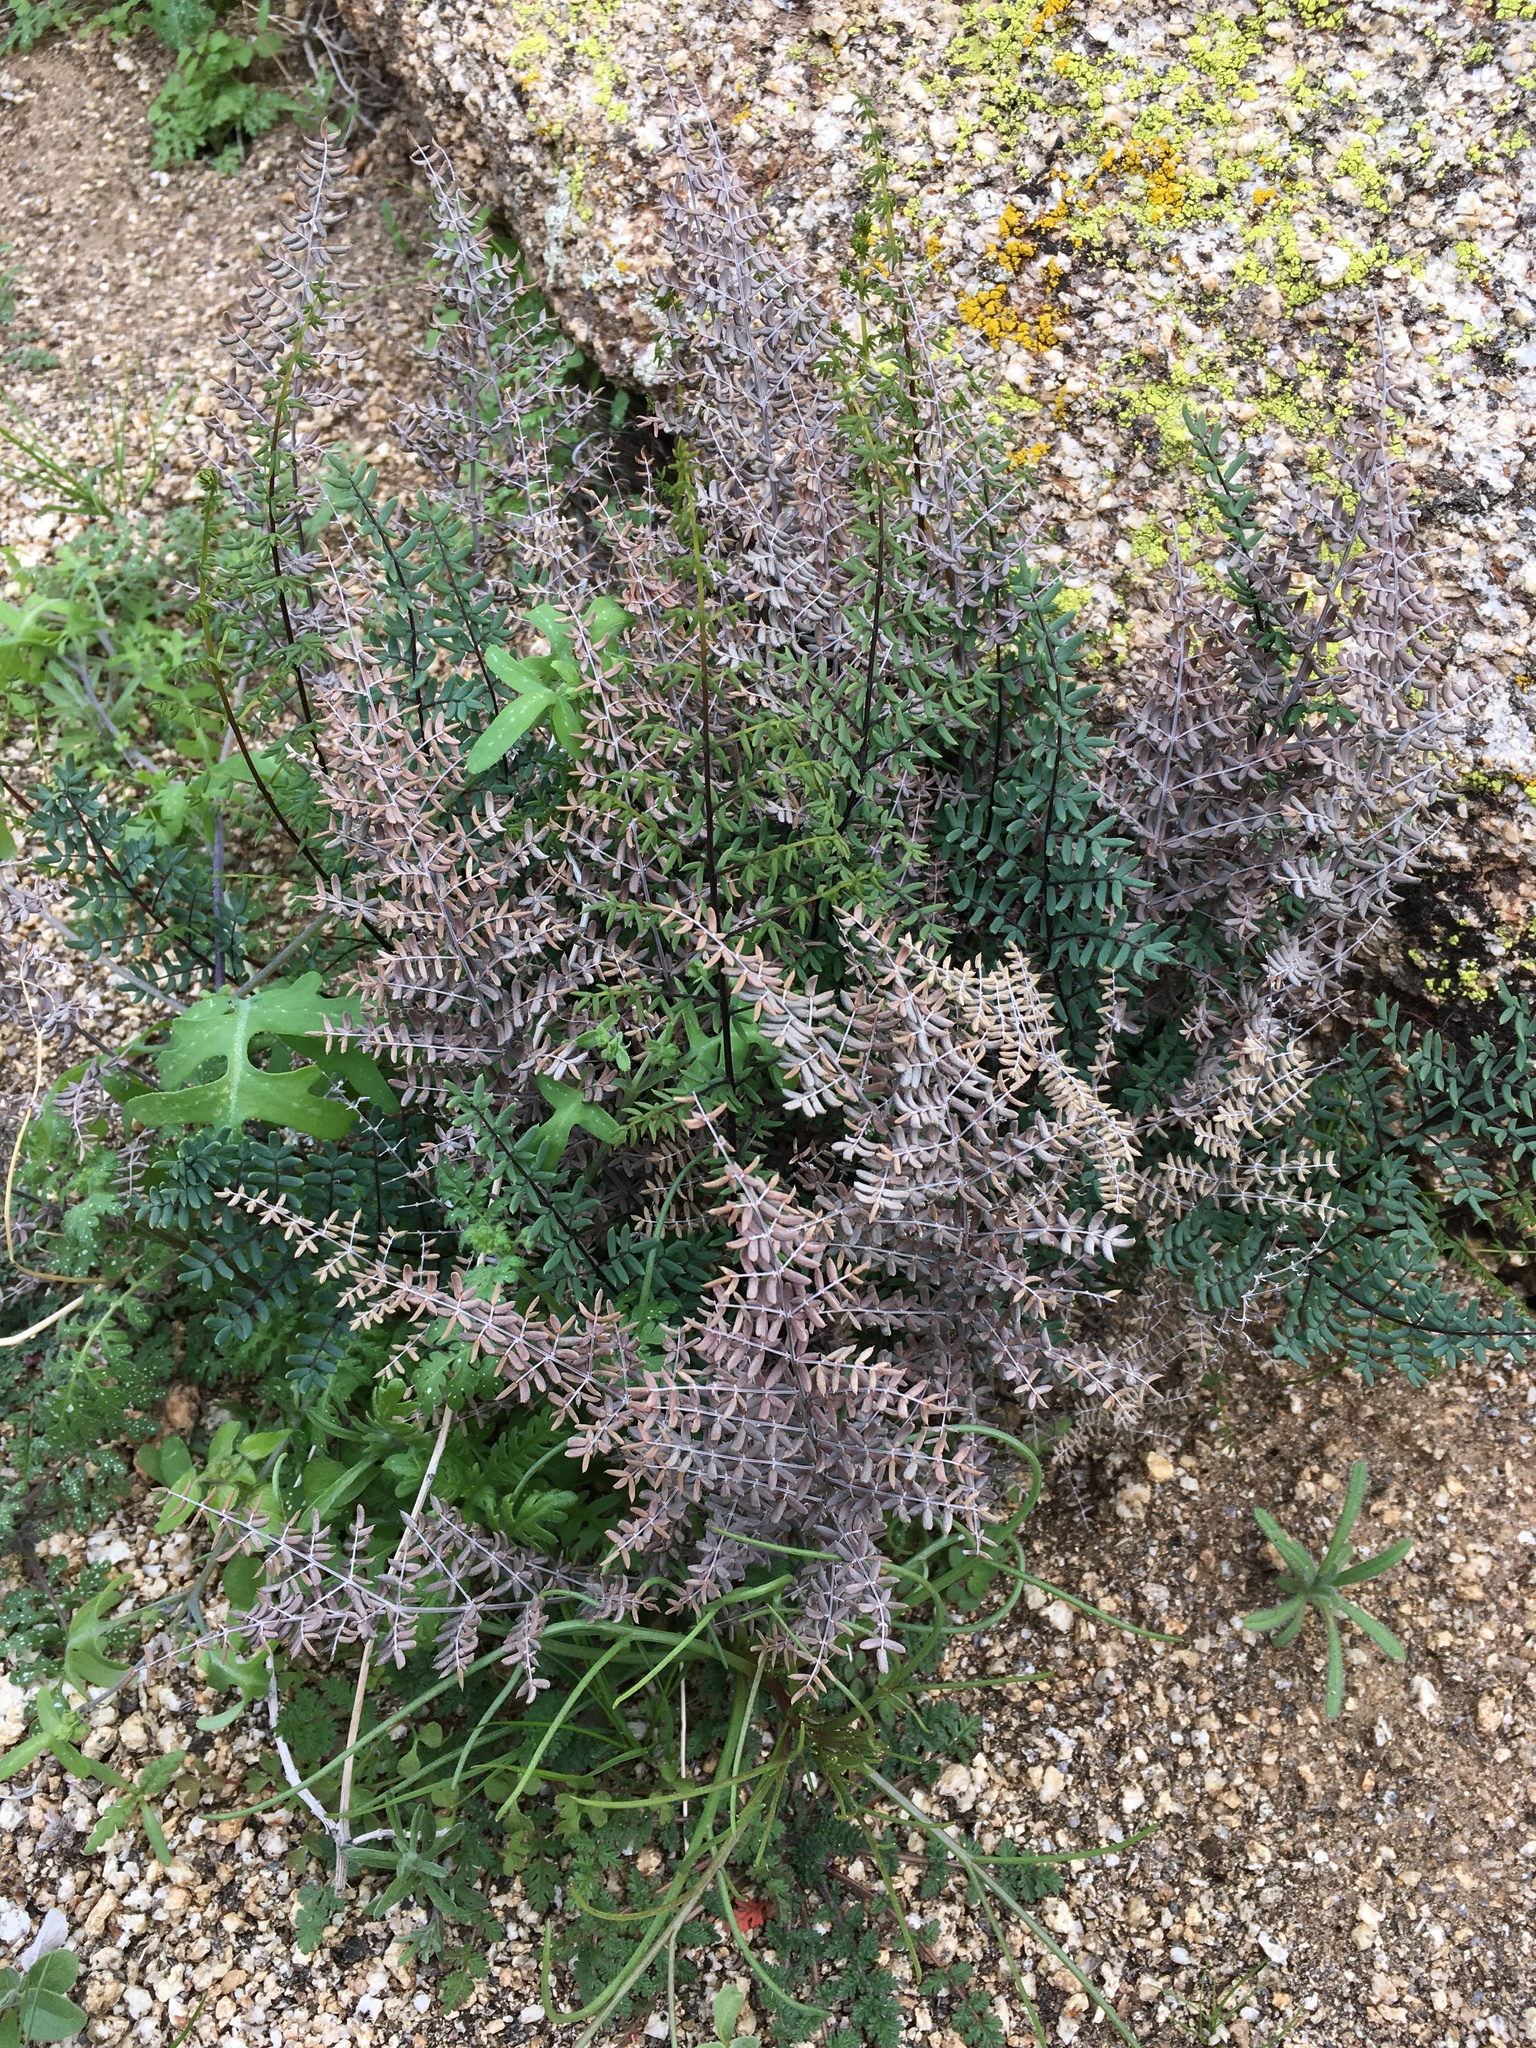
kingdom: Plantae
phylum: Tracheophyta
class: Polypodiopsida
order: Polypodiales
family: Pteridaceae
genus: Pellaea
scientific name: Pellaea mucronata
